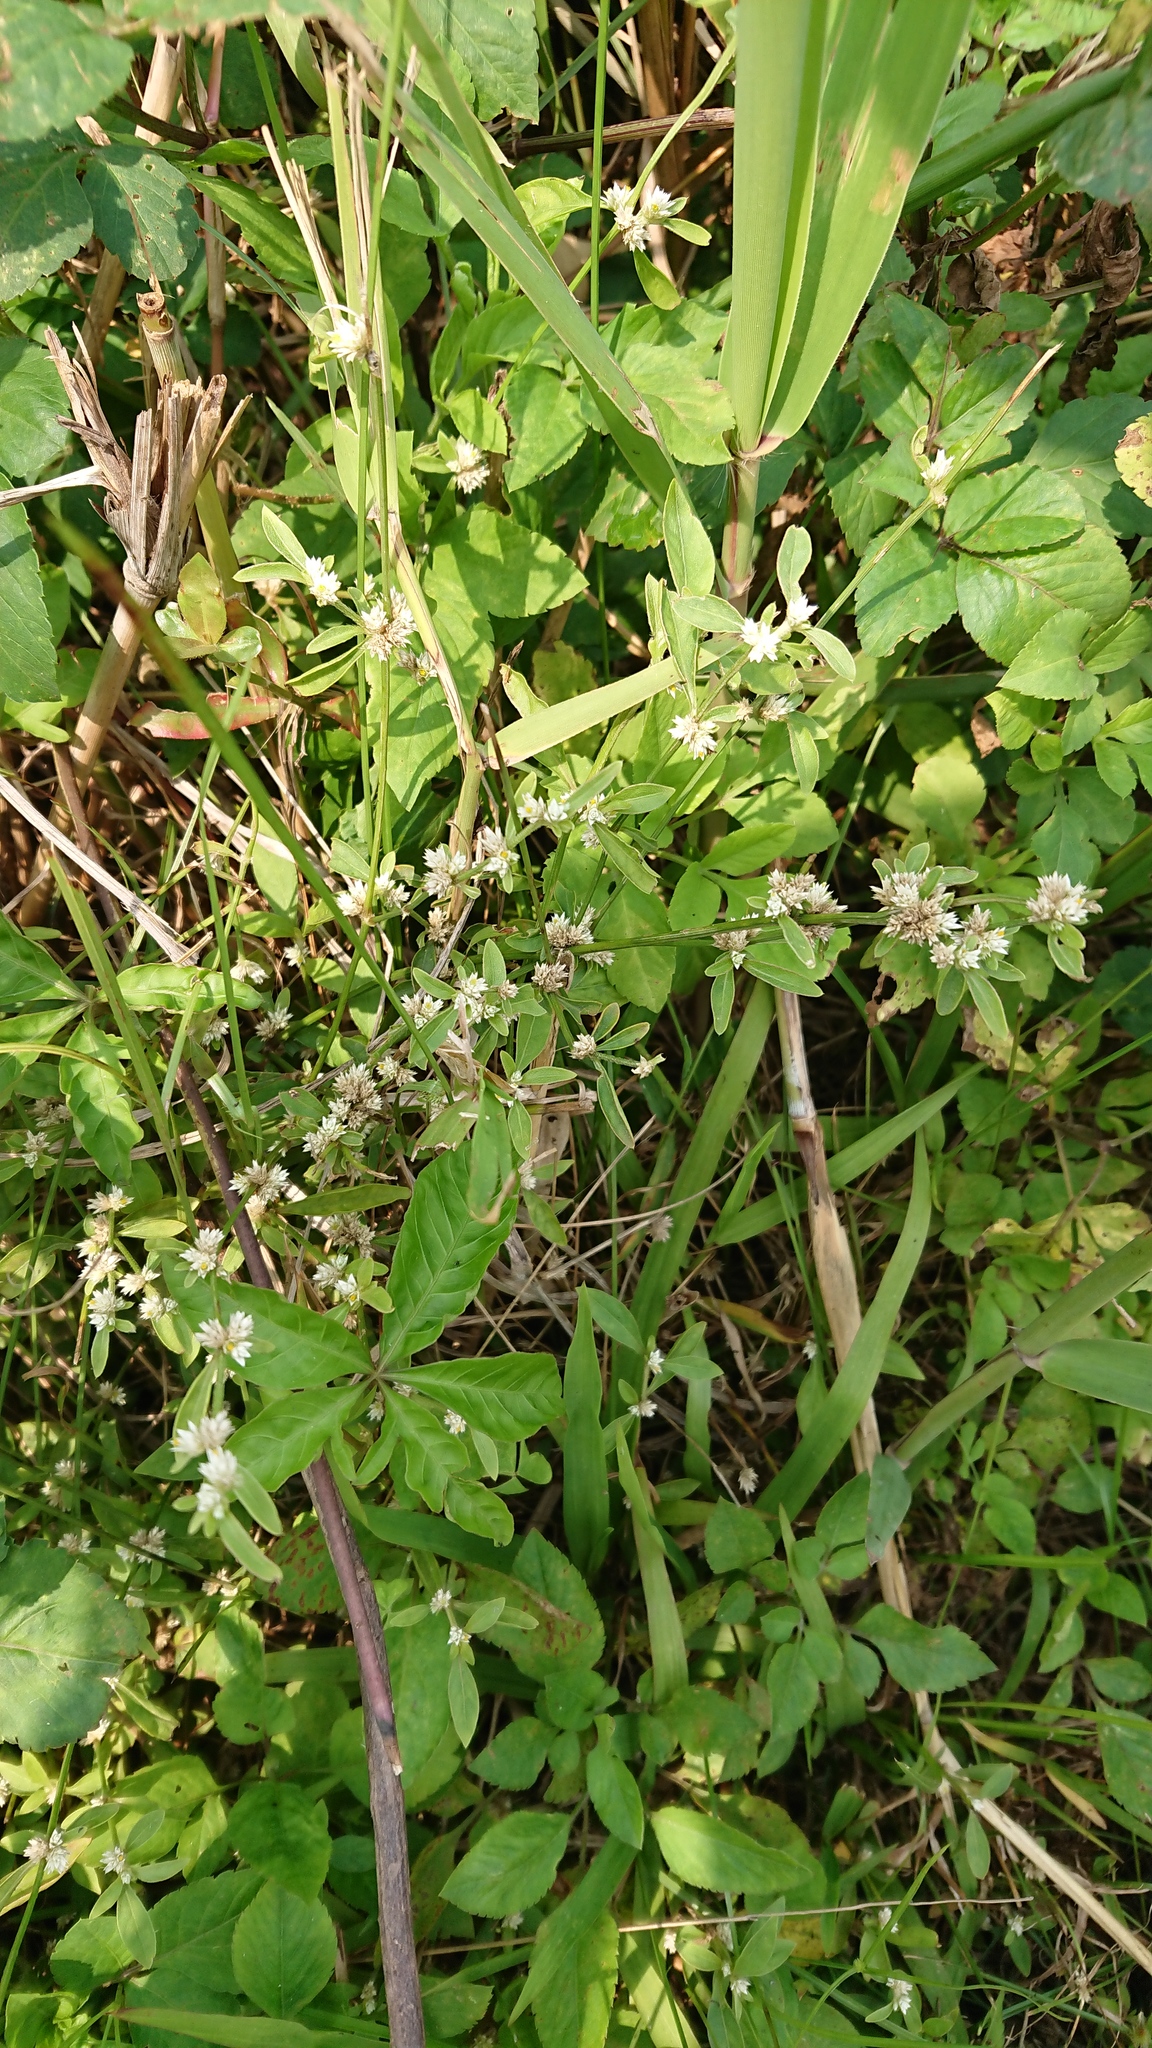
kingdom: Plantae
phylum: Tracheophyta
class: Magnoliopsida
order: Caryophyllales
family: Amaranthaceae
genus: Alternanthera
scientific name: Alternanthera sessilis
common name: Sessile joyweed
